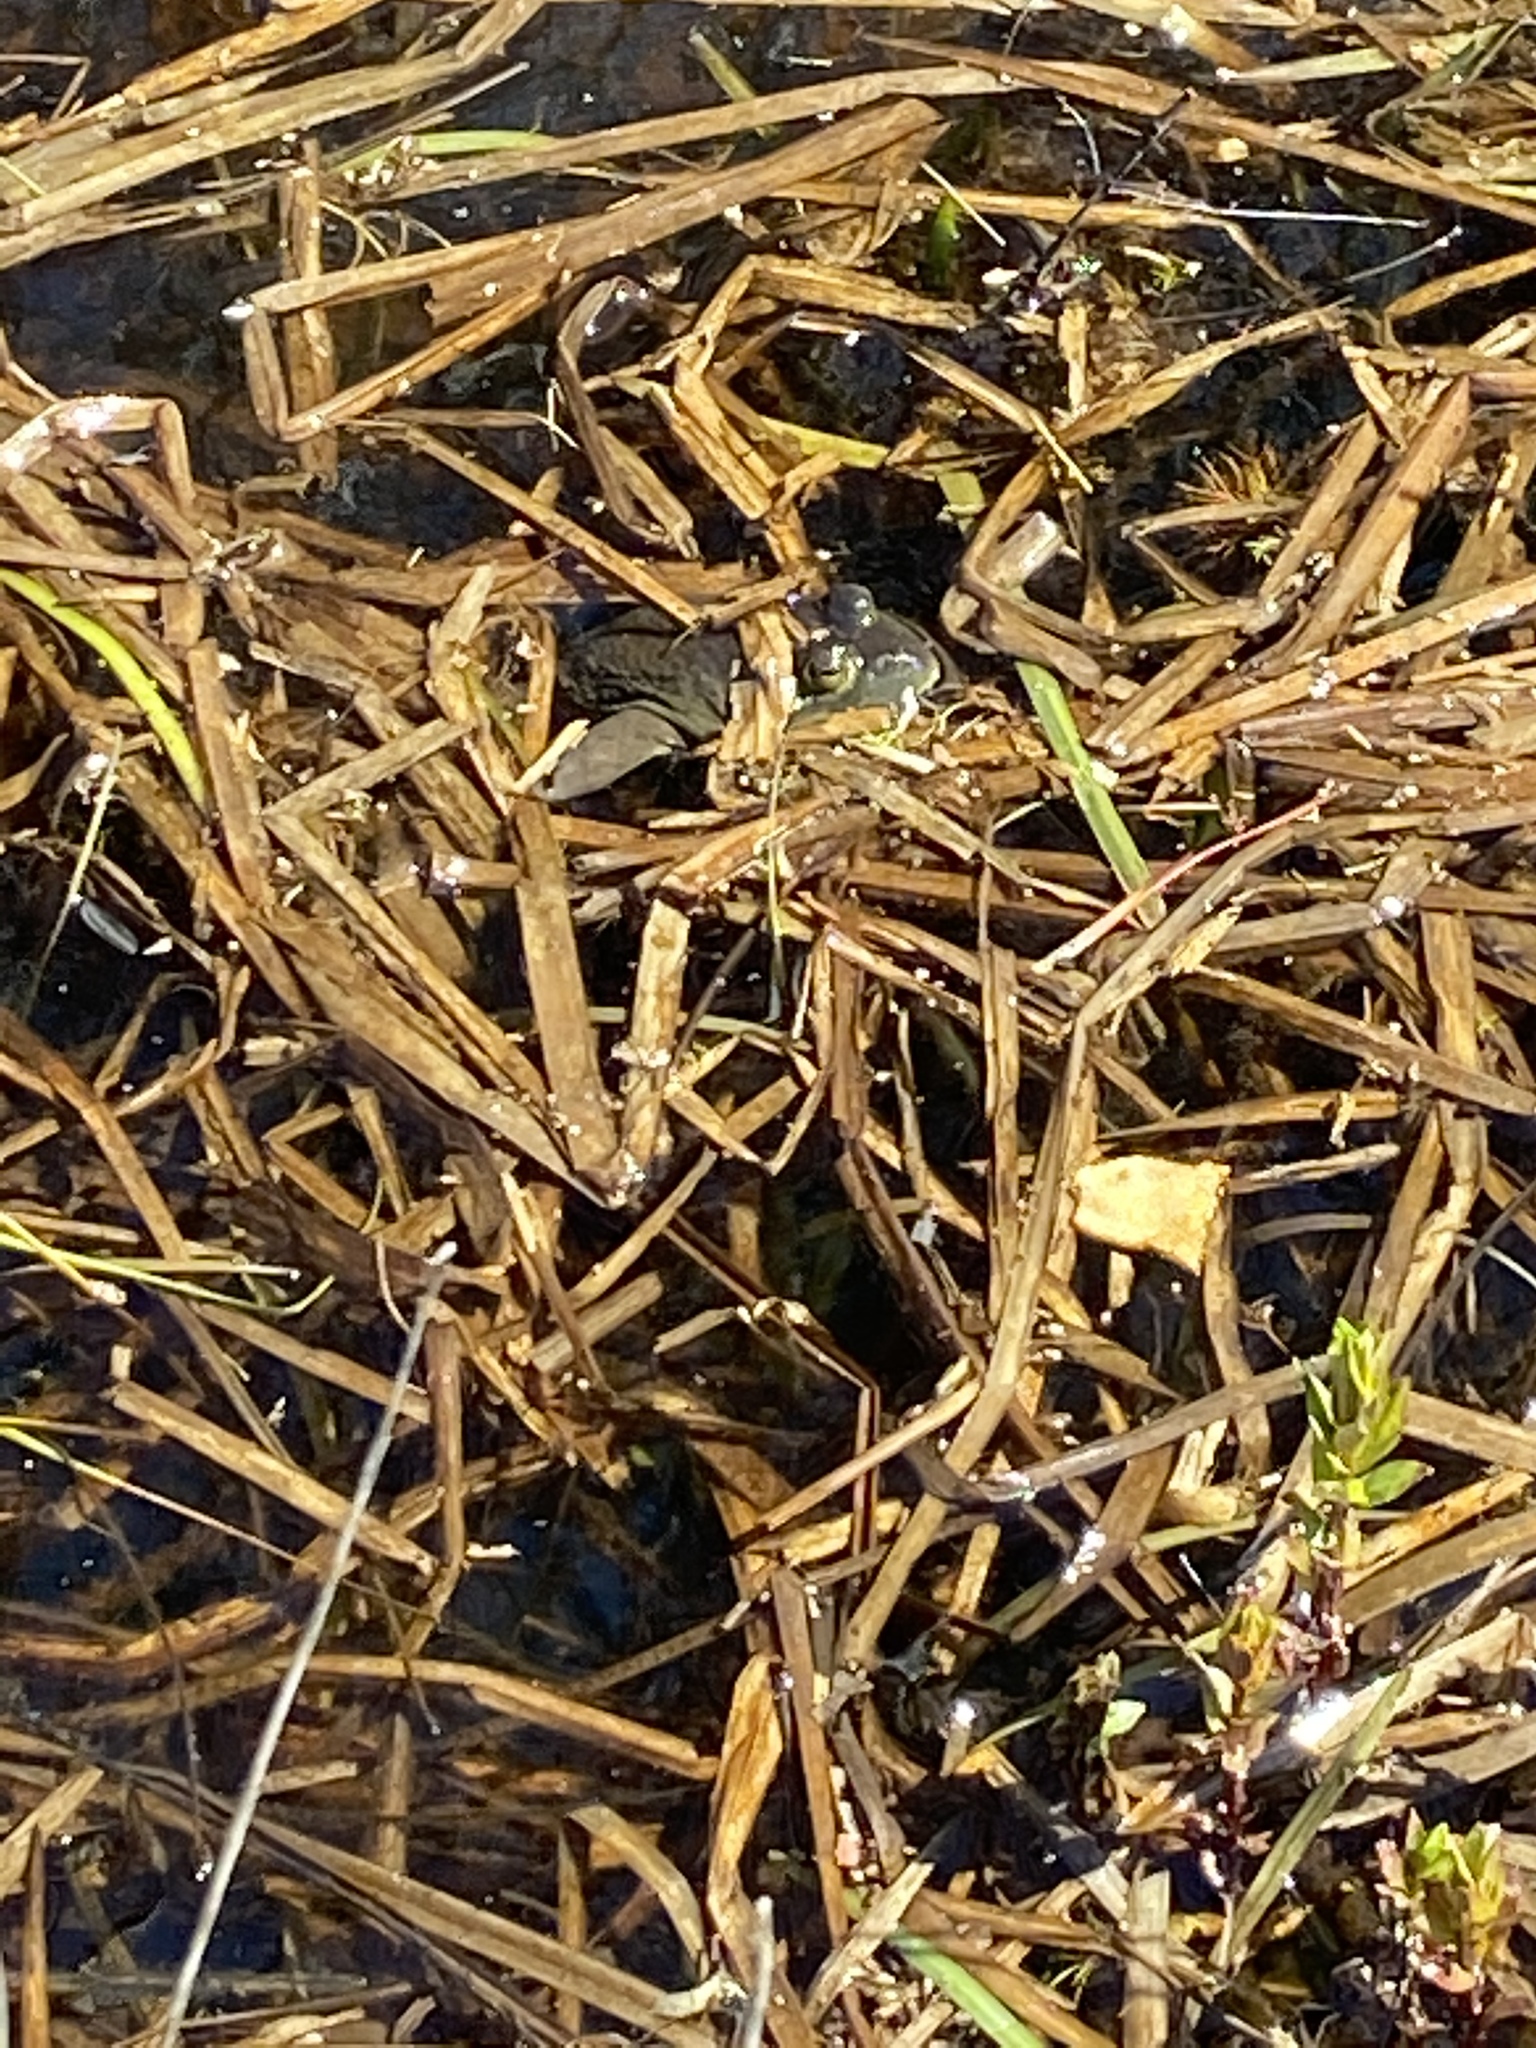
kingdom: Animalia
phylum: Chordata
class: Amphibia
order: Anura
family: Ranidae
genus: Lithobates
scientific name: Lithobates catesbeianus
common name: American bullfrog
